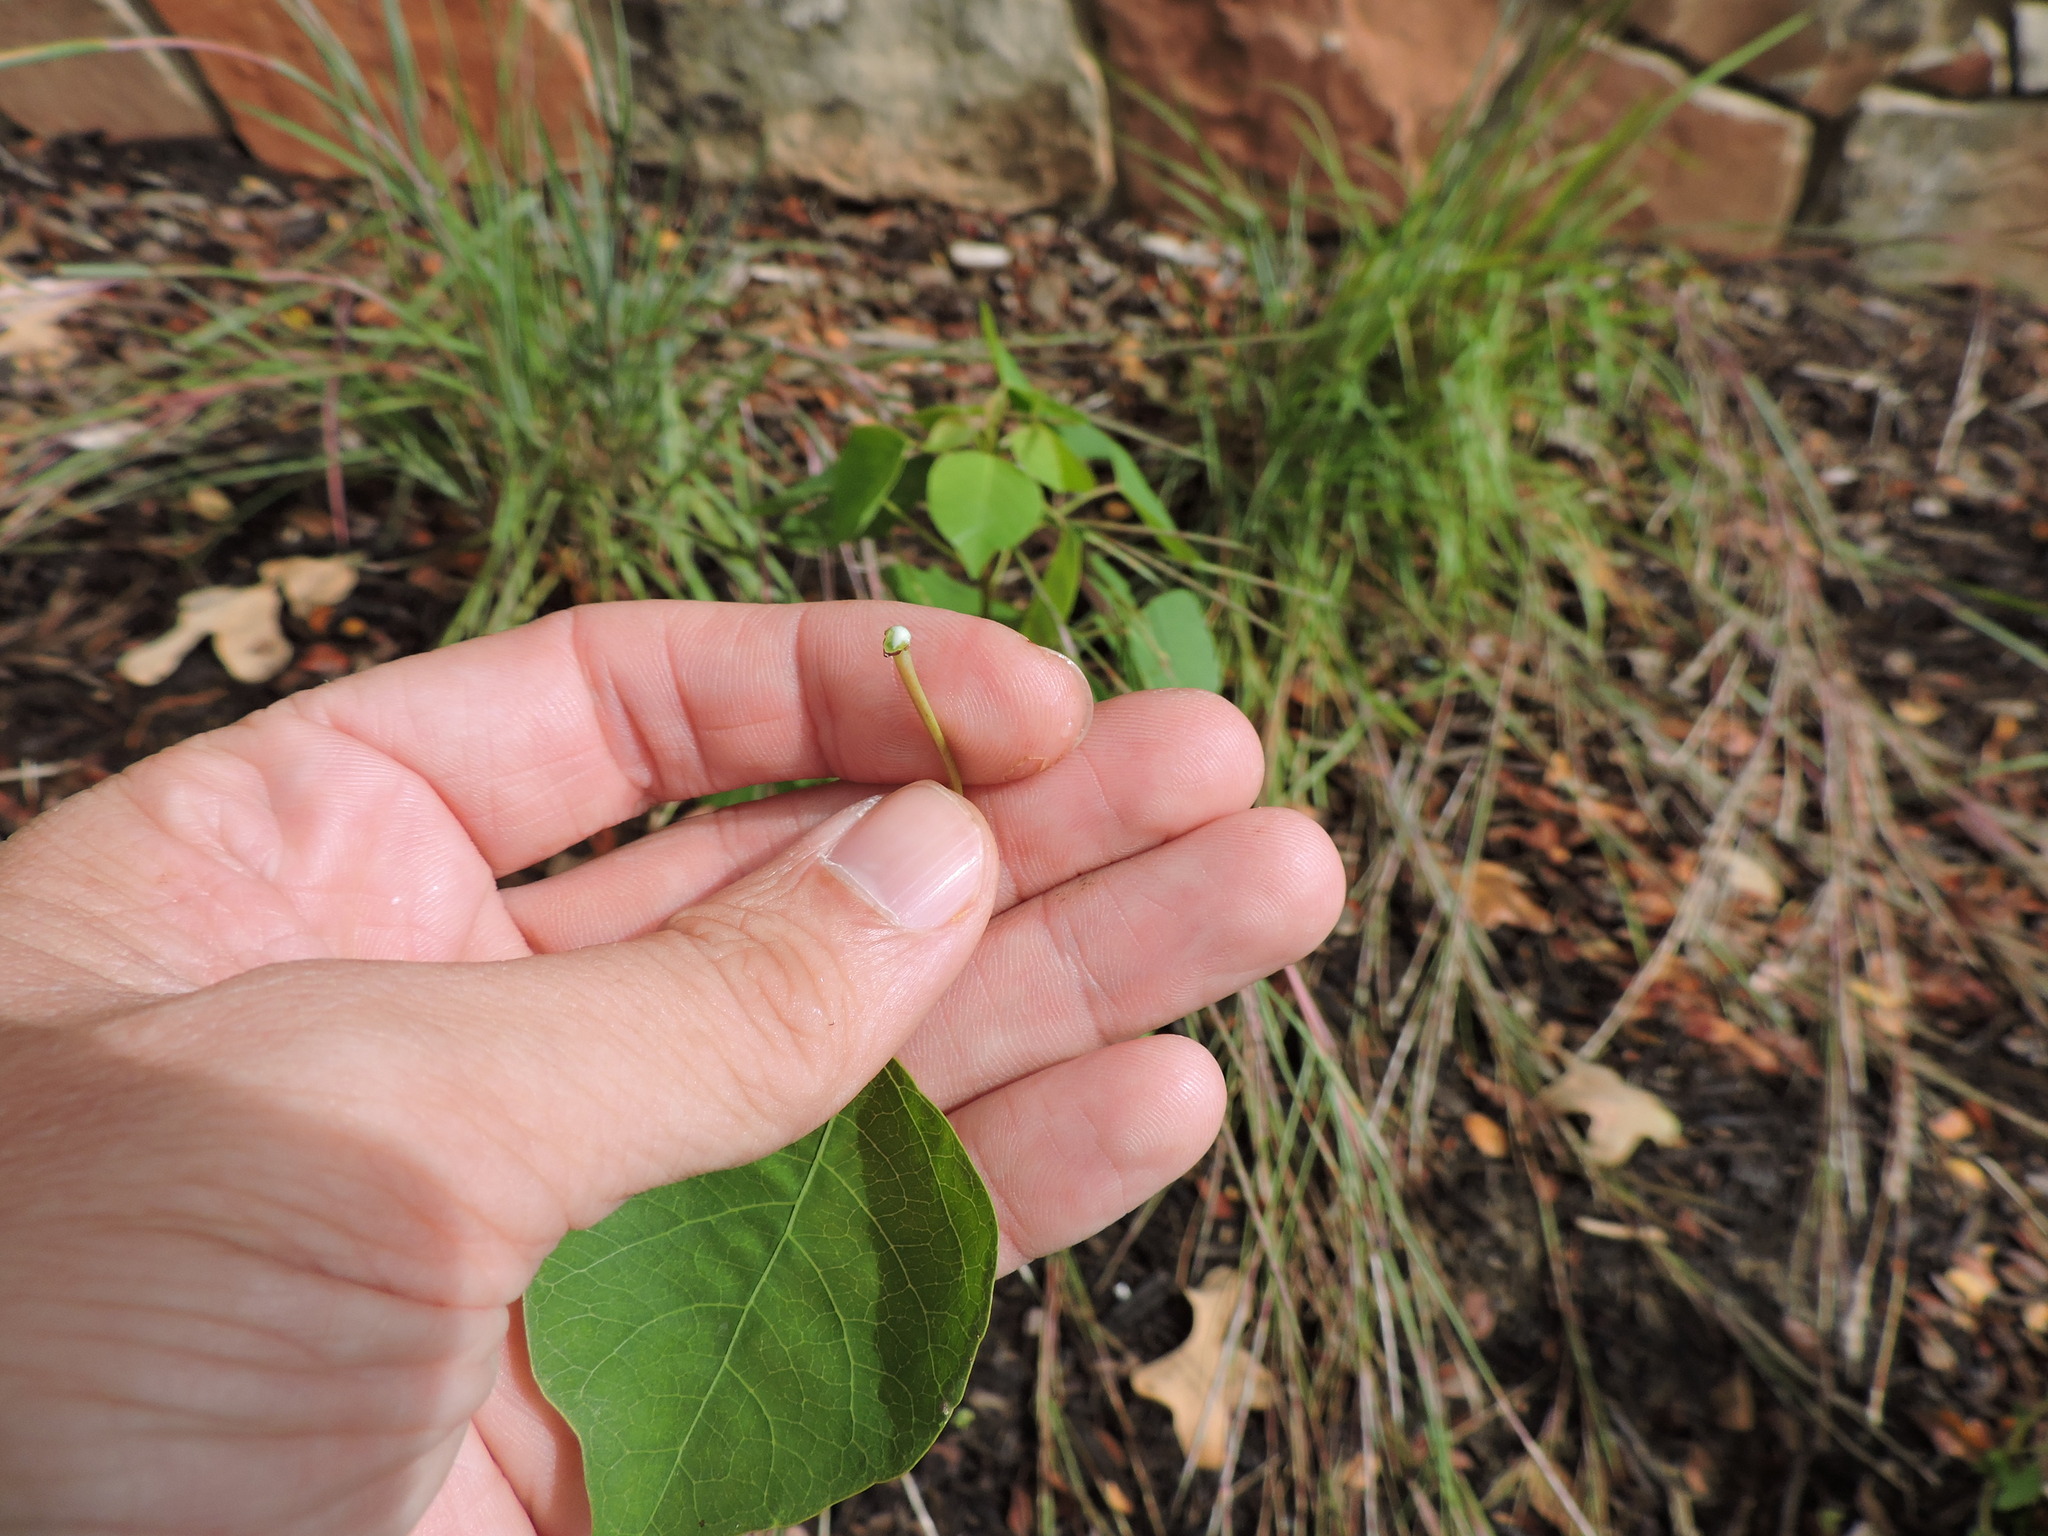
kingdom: Plantae
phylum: Tracheophyta
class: Magnoliopsida
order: Malpighiales
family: Euphorbiaceae
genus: Triadica
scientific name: Triadica sebifera
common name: Chinese tallow
